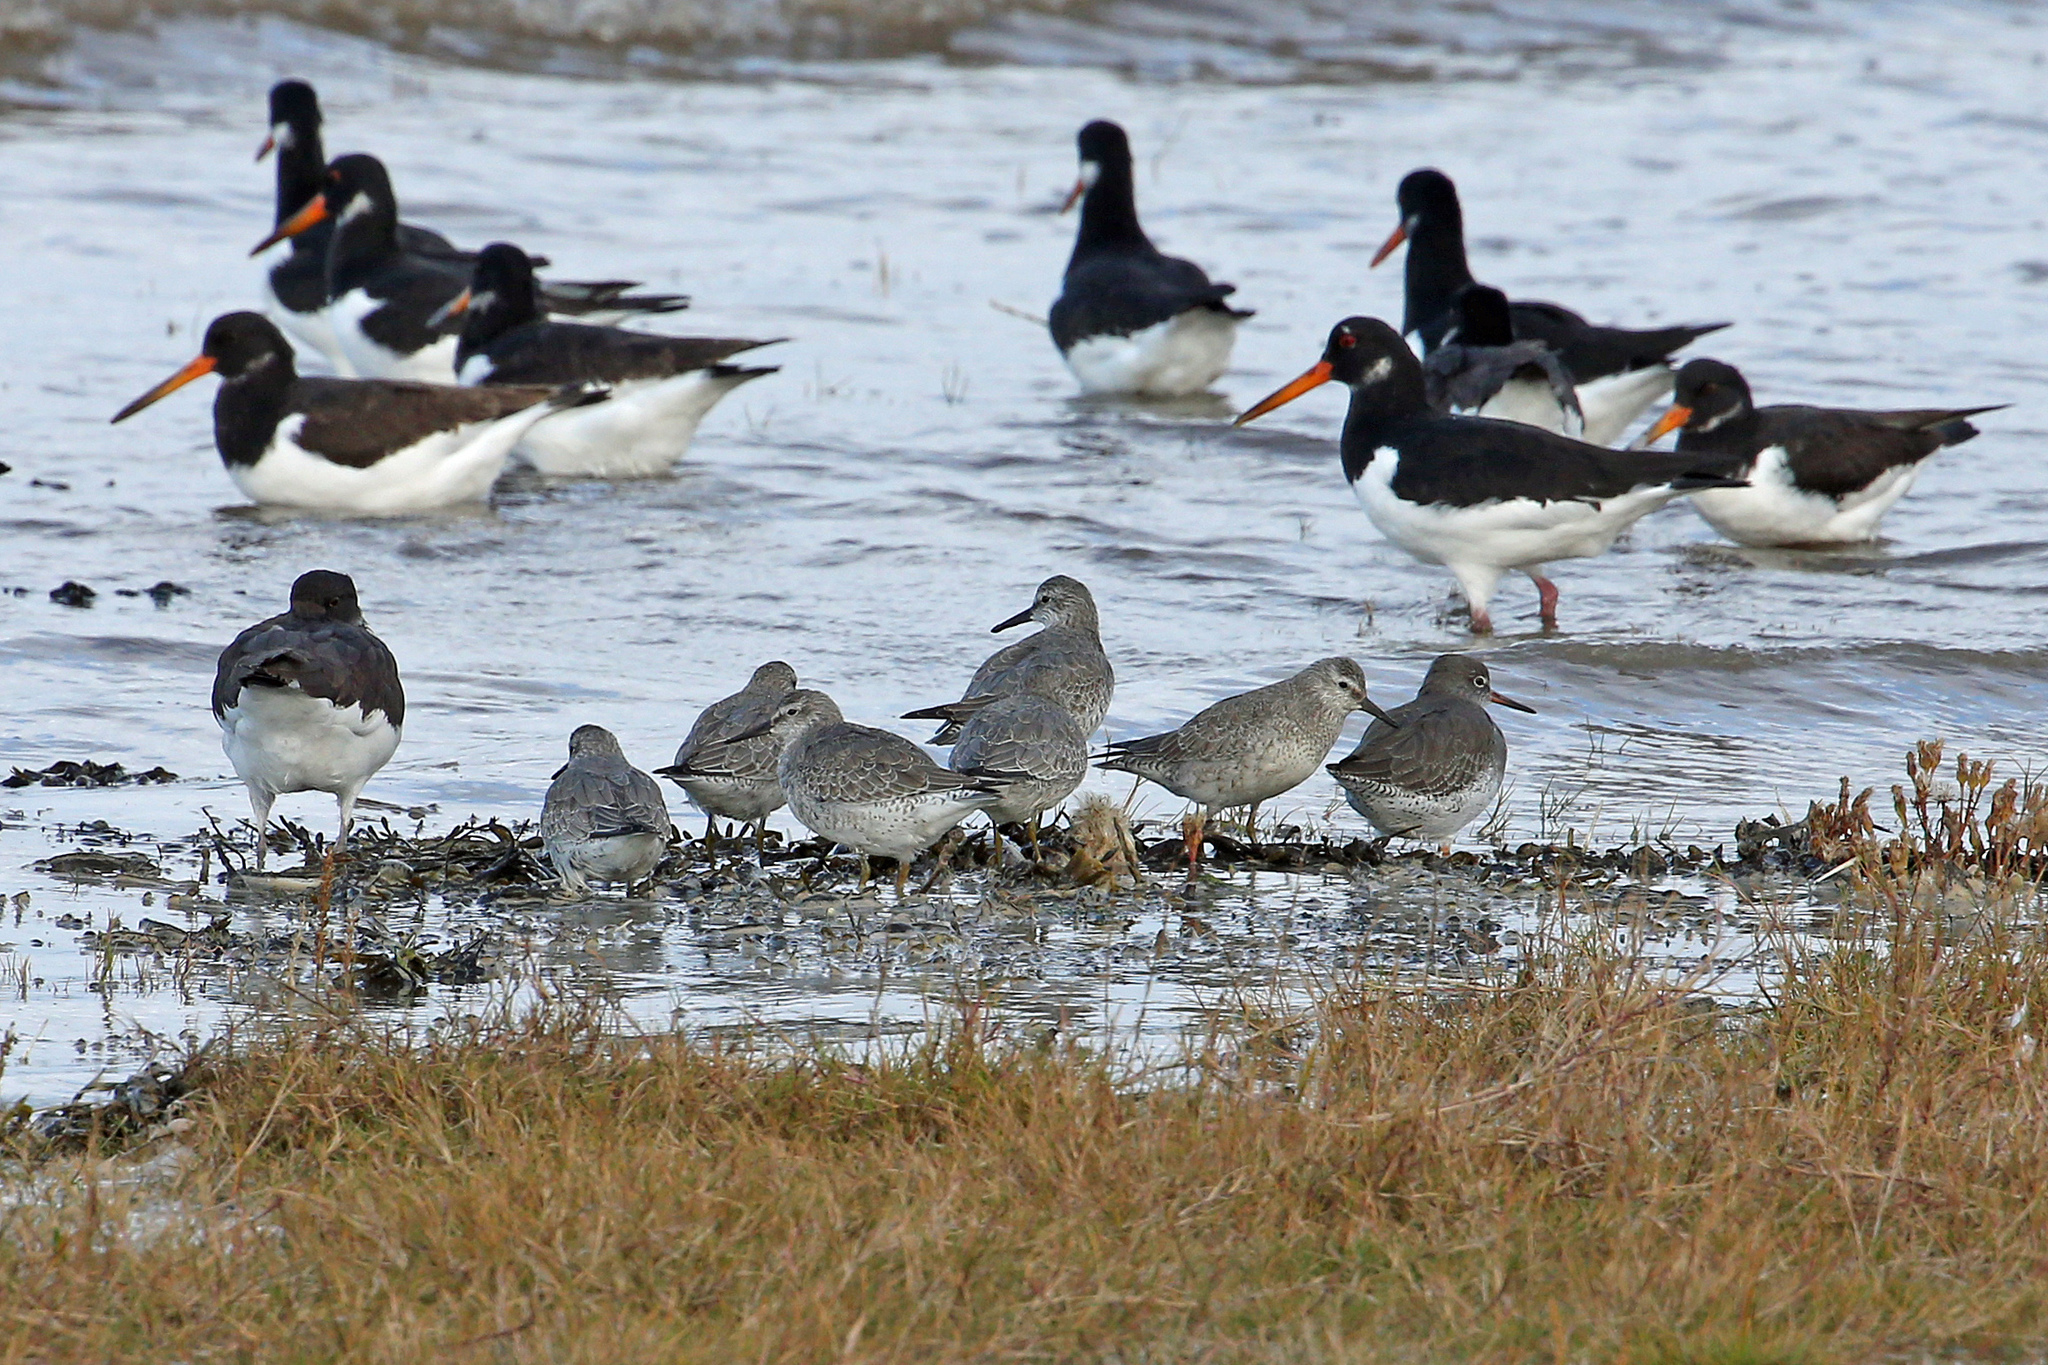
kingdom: Animalia
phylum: Chordata
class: Aves
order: Charadriiformes
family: Scolopacidae
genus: Calidris
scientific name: Calidris canutus
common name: Red knot
